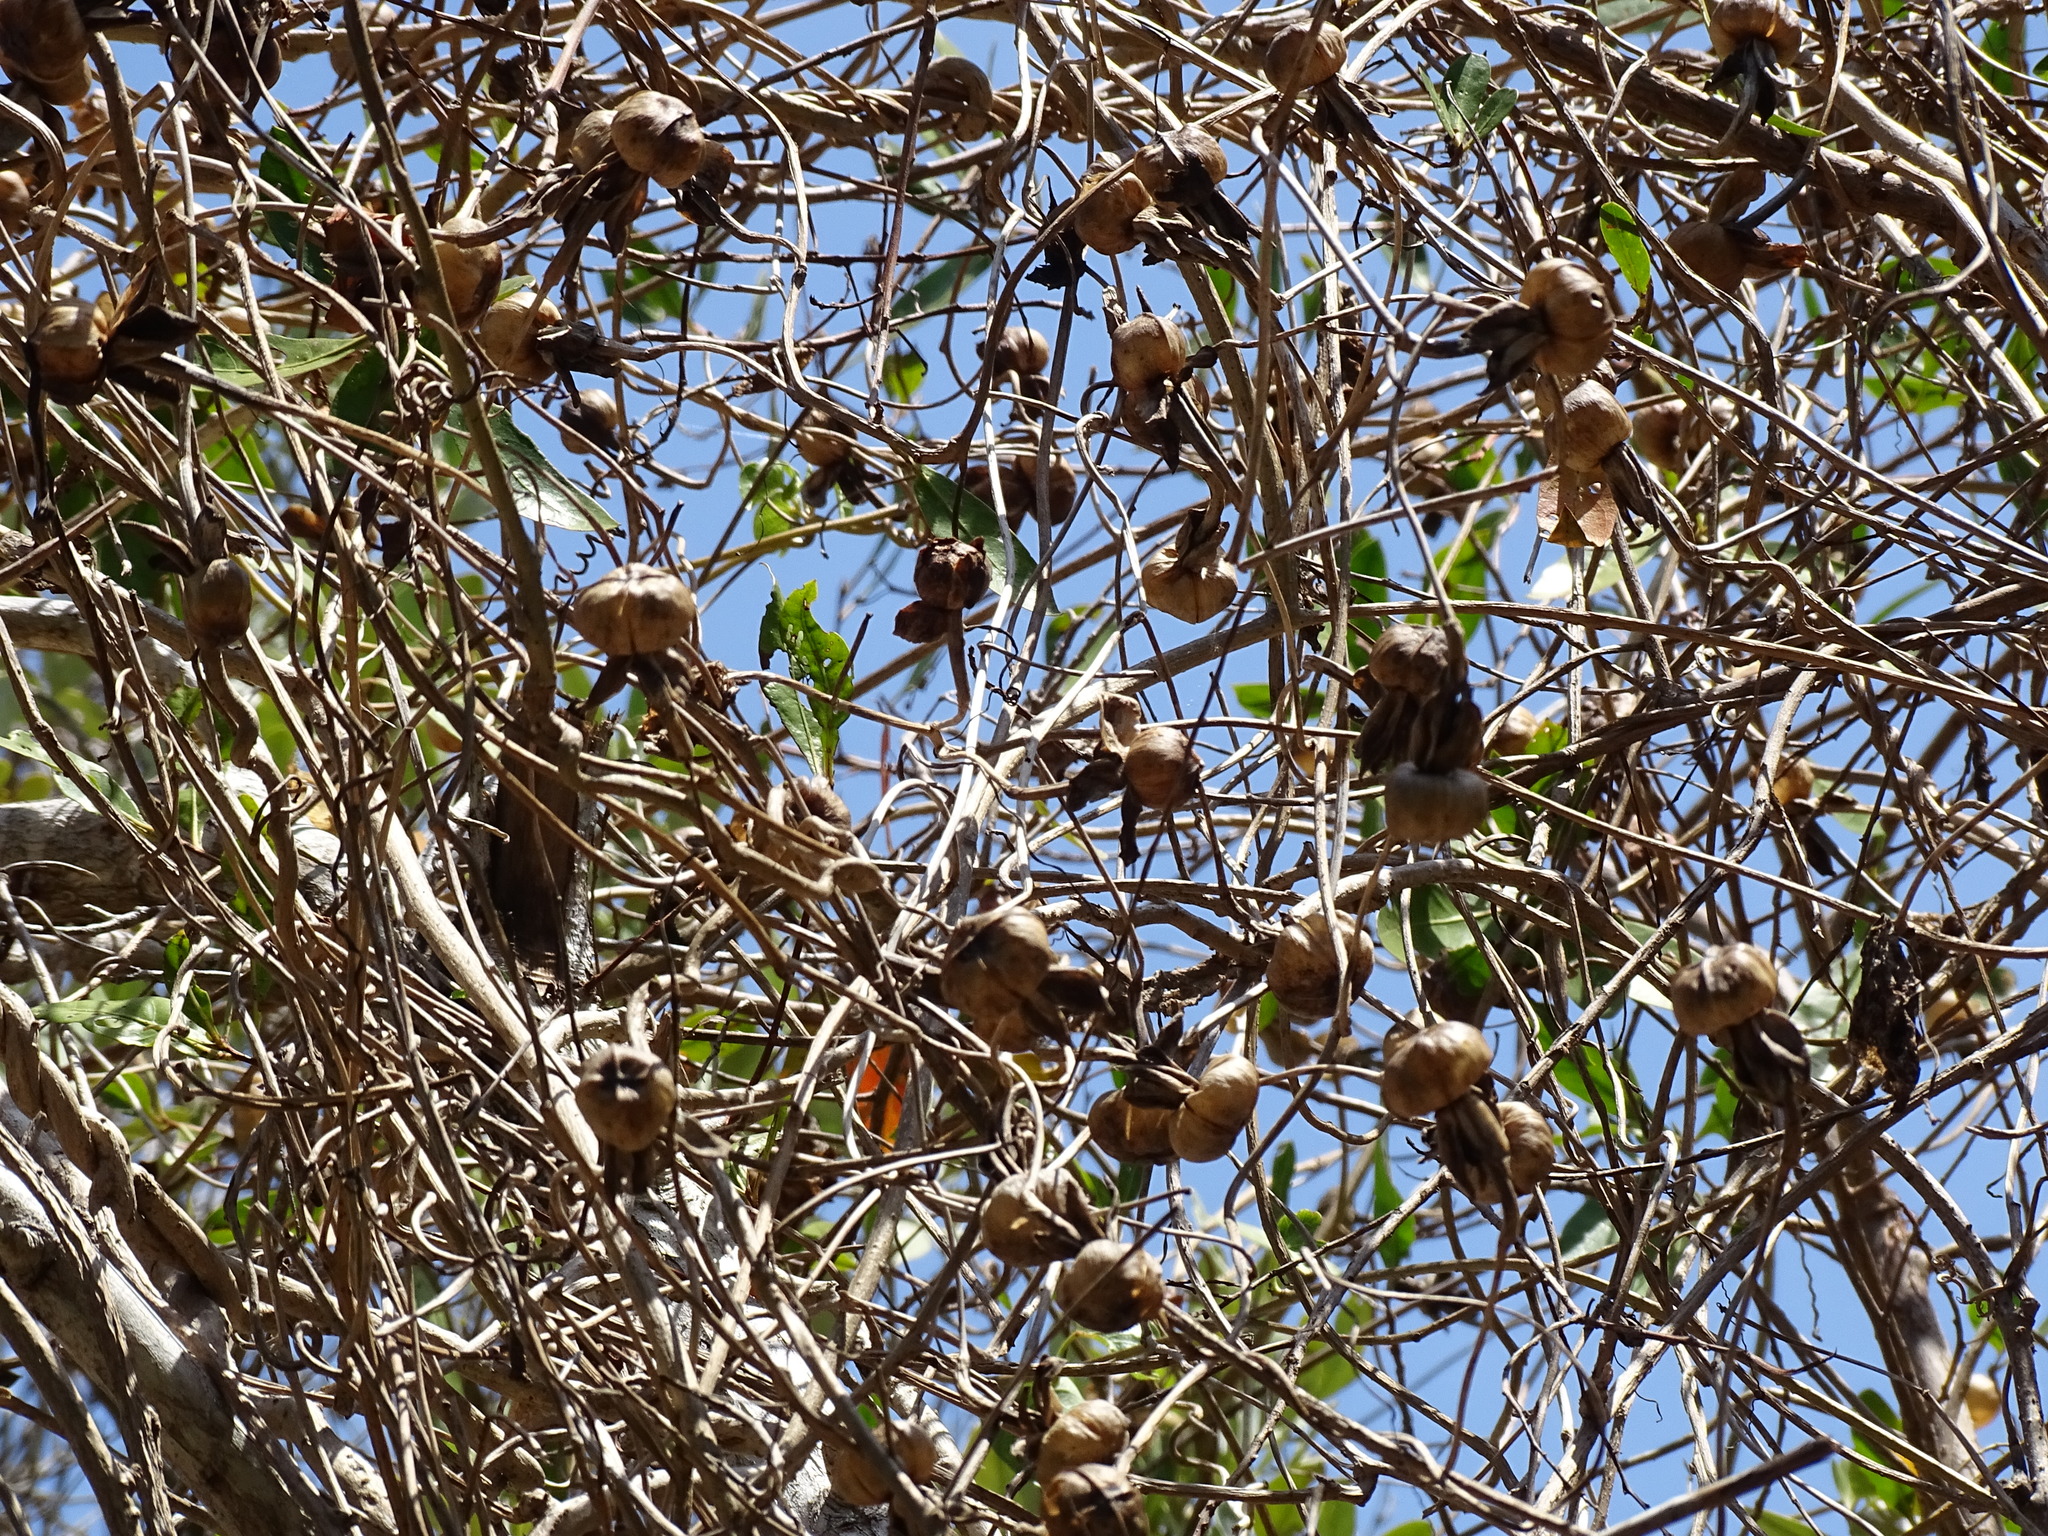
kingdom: Plantae
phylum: Tracheophyta
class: Magnoliopsida
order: Solanales
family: Convolvulaceae
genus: Ipomoea
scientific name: Ipomoea violacea
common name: Beach moonflower
